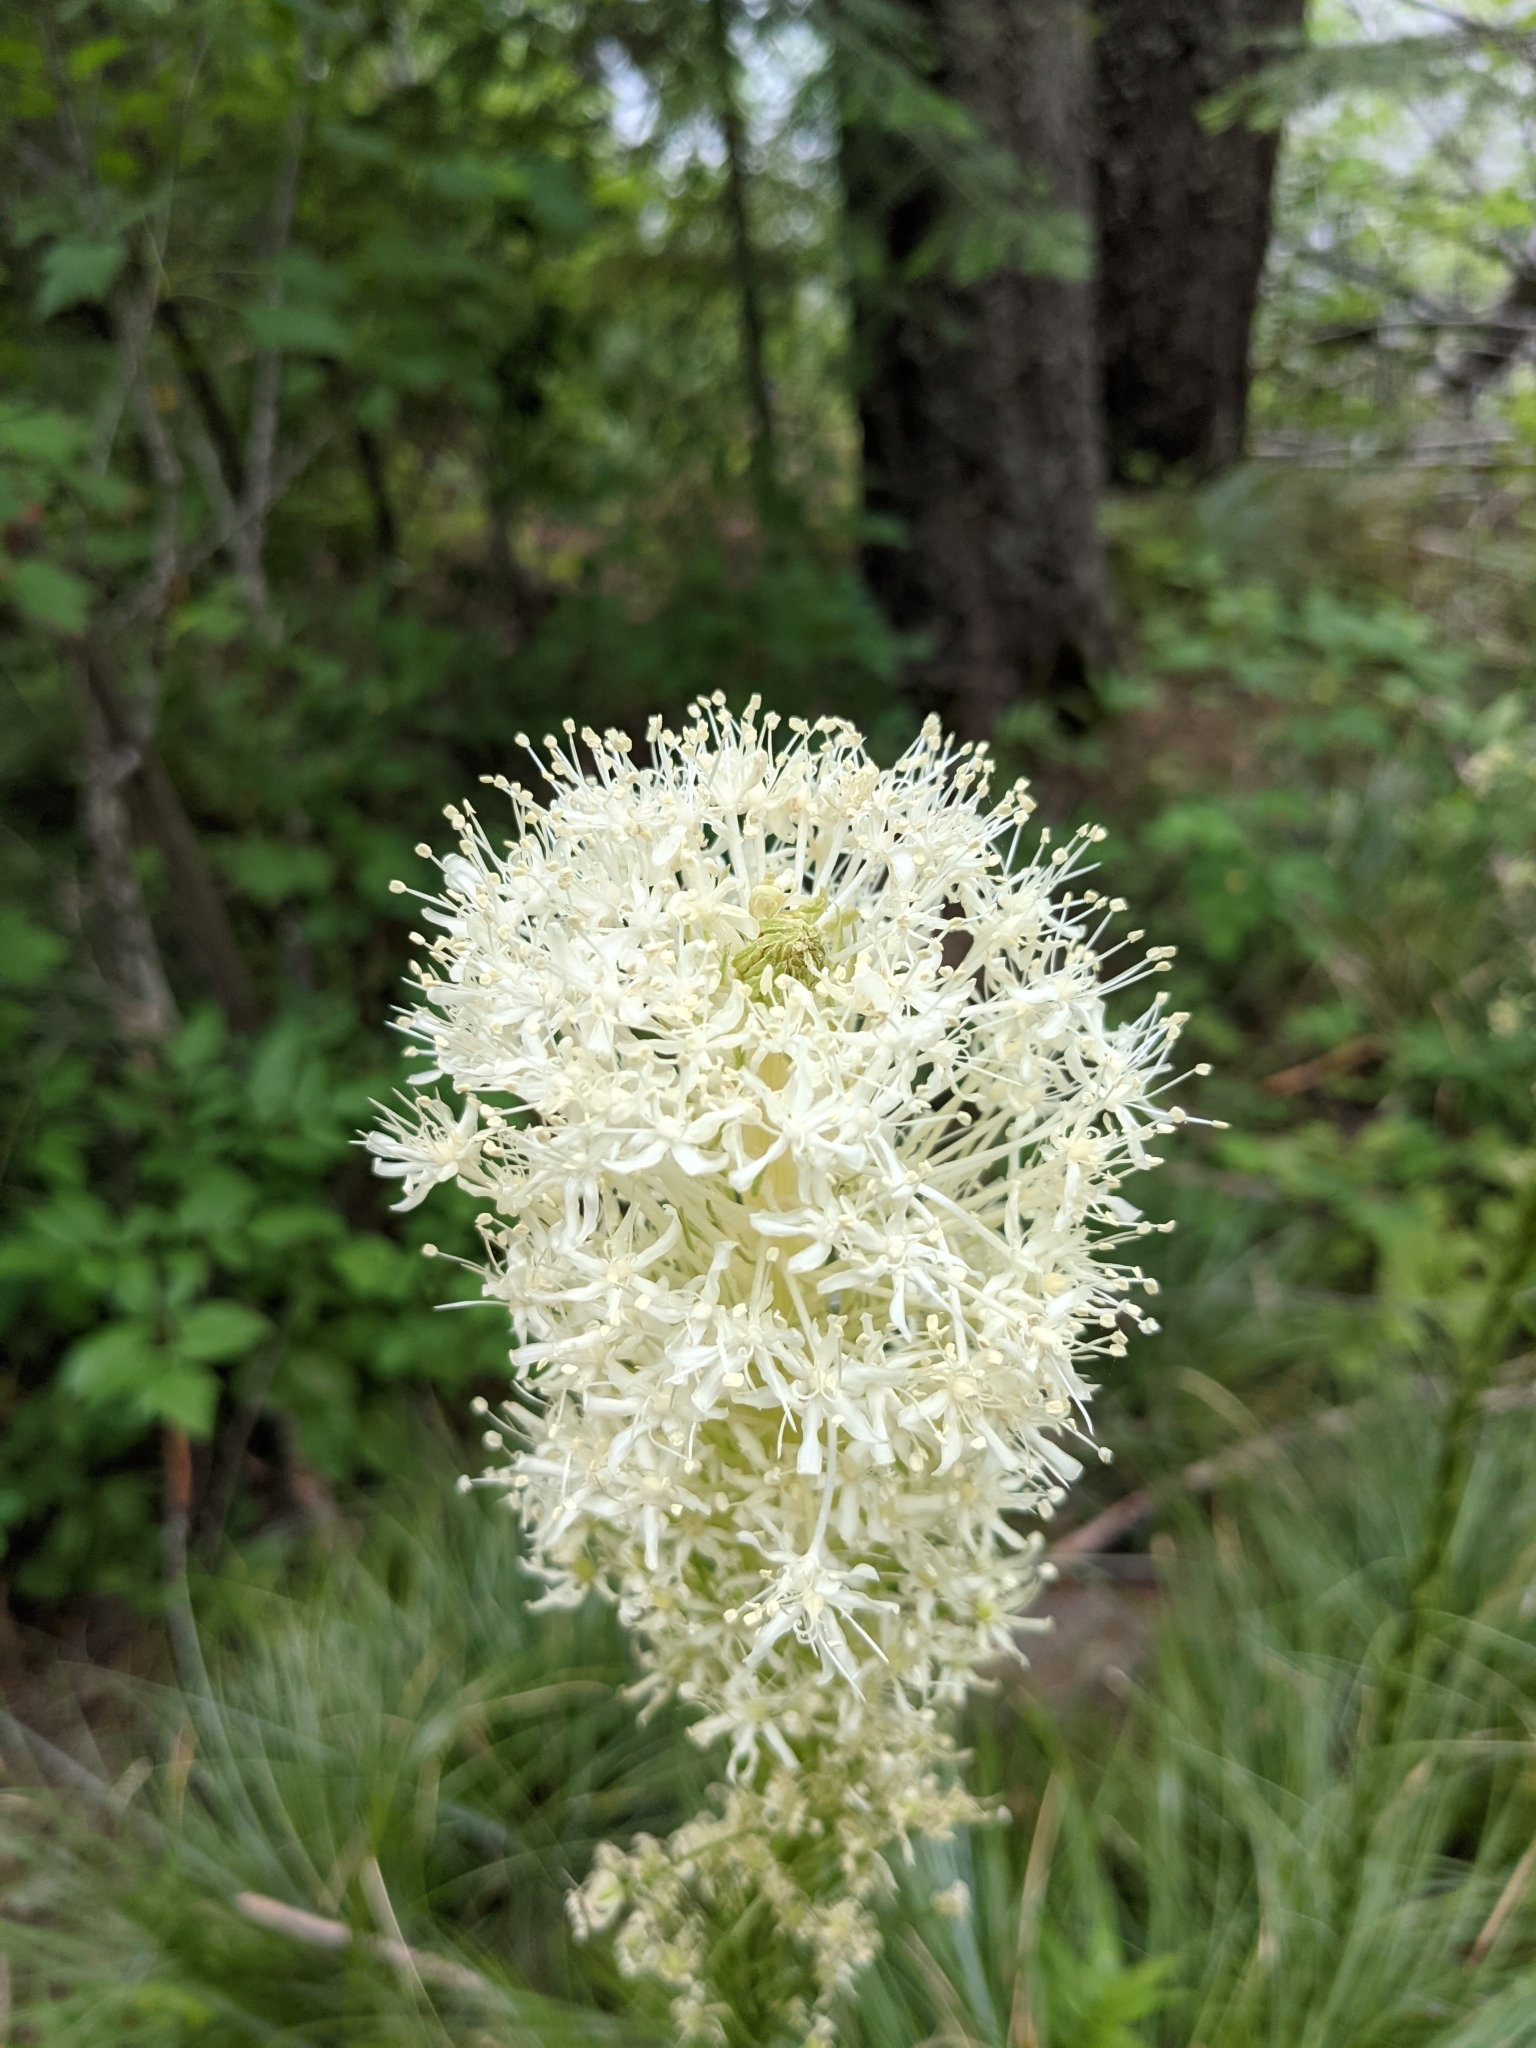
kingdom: Plantae
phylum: Tracheophyta
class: Liliopsida
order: Liliales
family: Melanthiaceae
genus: Xerophyllum
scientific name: Xerophyllum tenax
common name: Bear-grass
